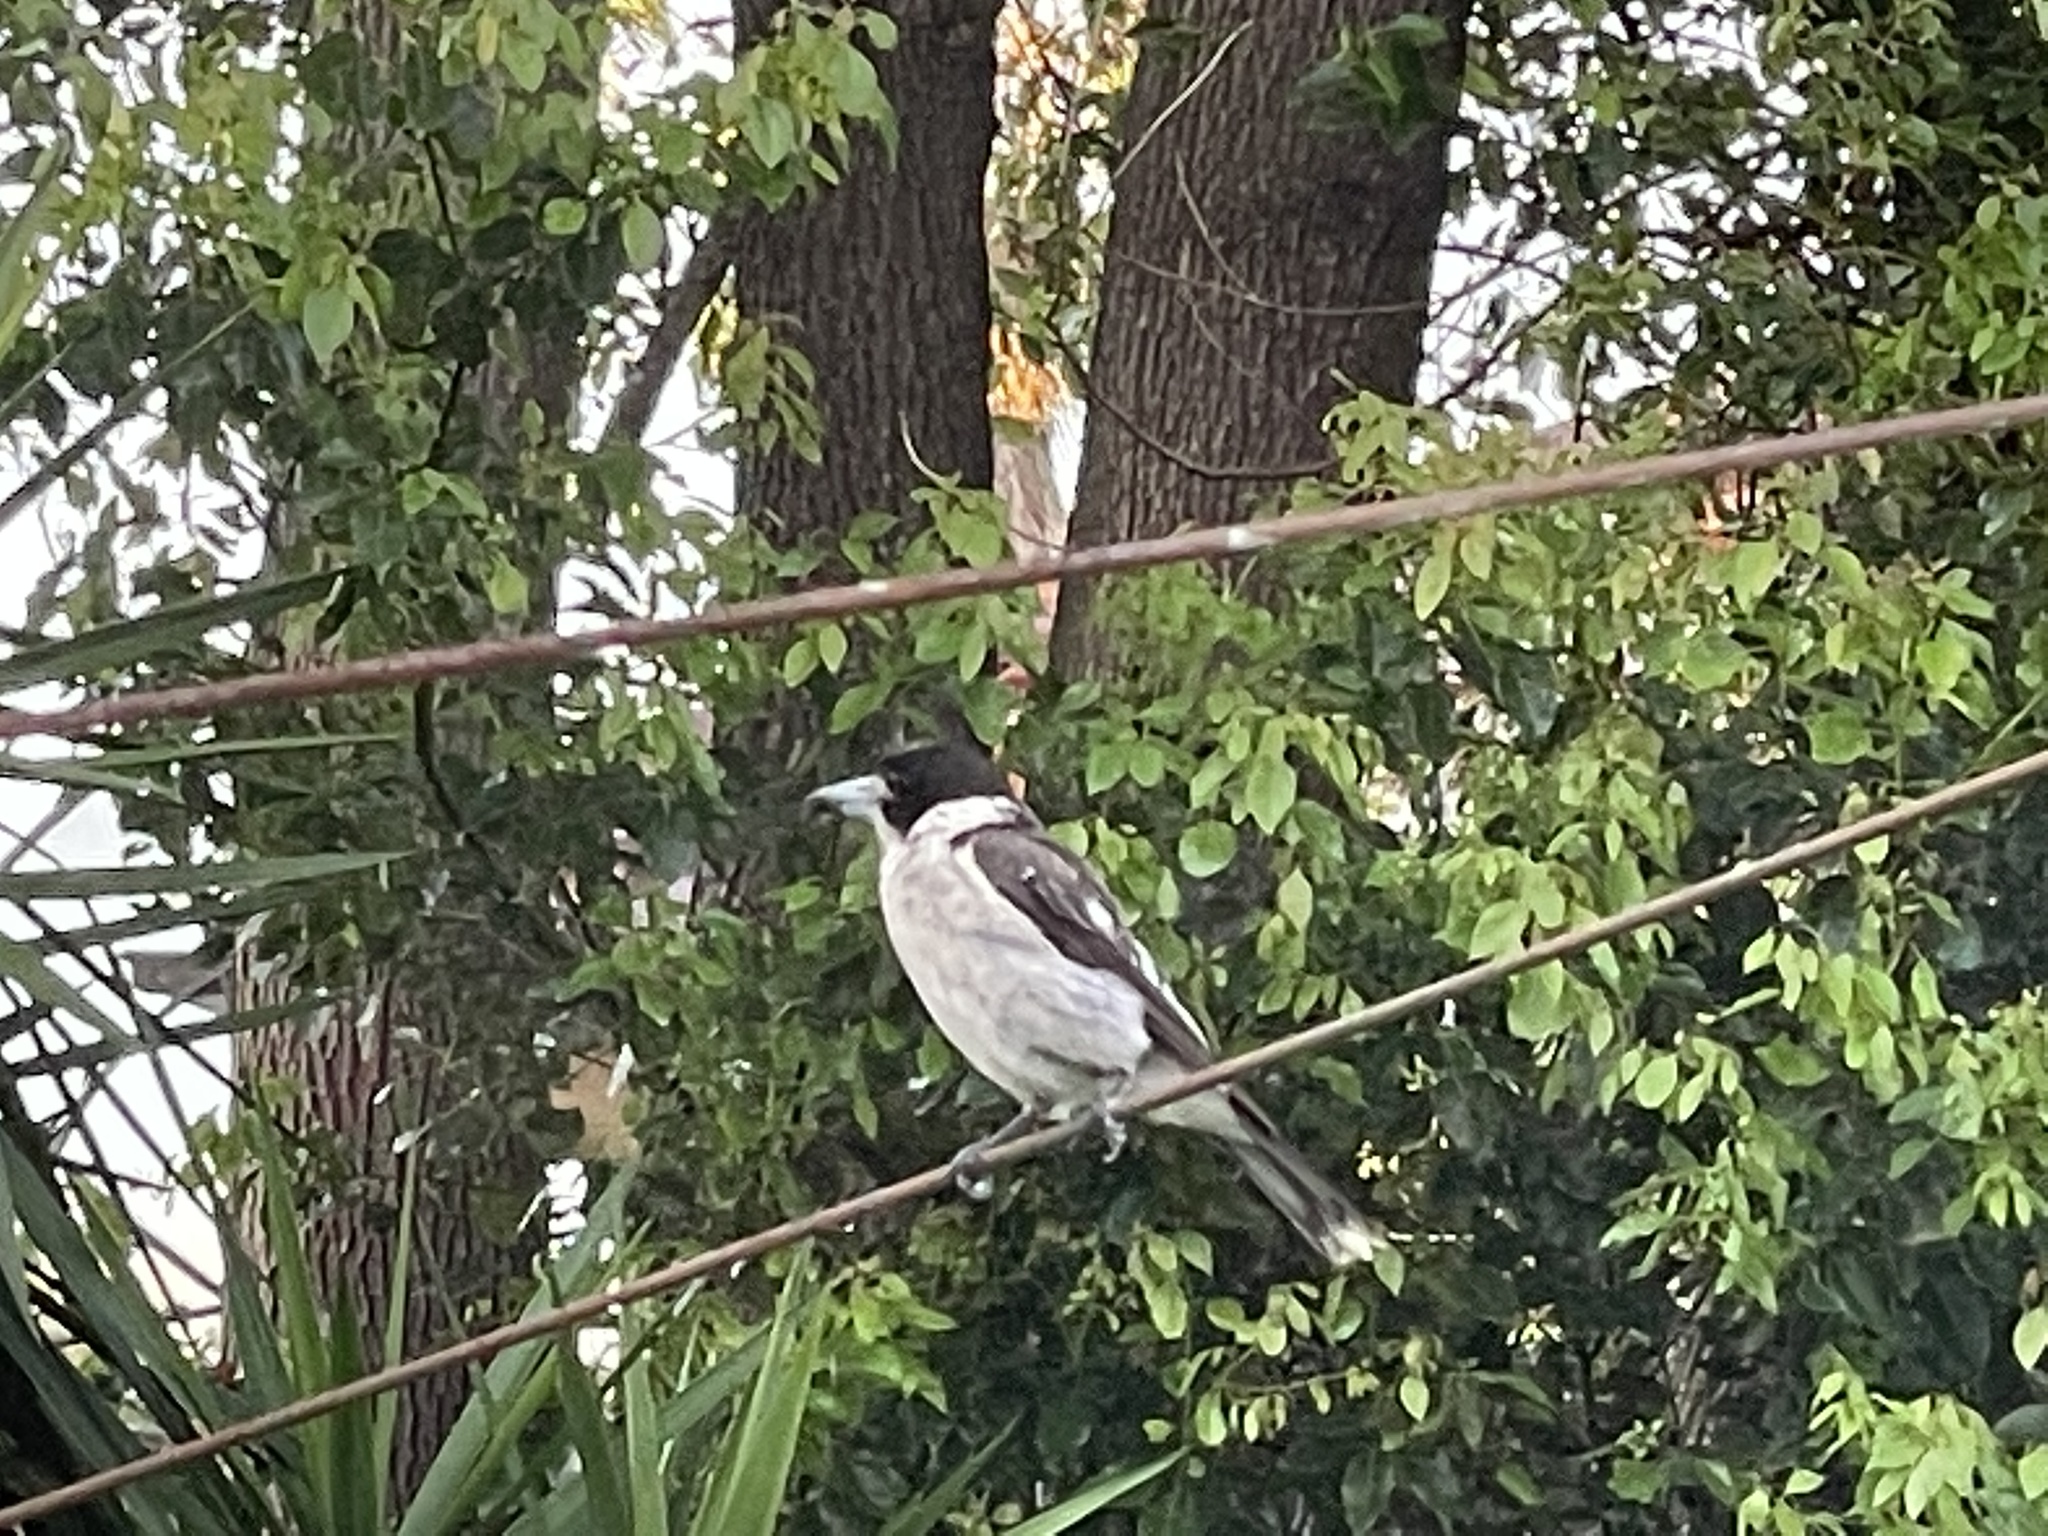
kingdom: Animalia
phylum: Chordata
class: Aves
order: Passeriformes
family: Cracticidae
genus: Cracticus
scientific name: Cracticus torquatus
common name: Grey butcherbird
